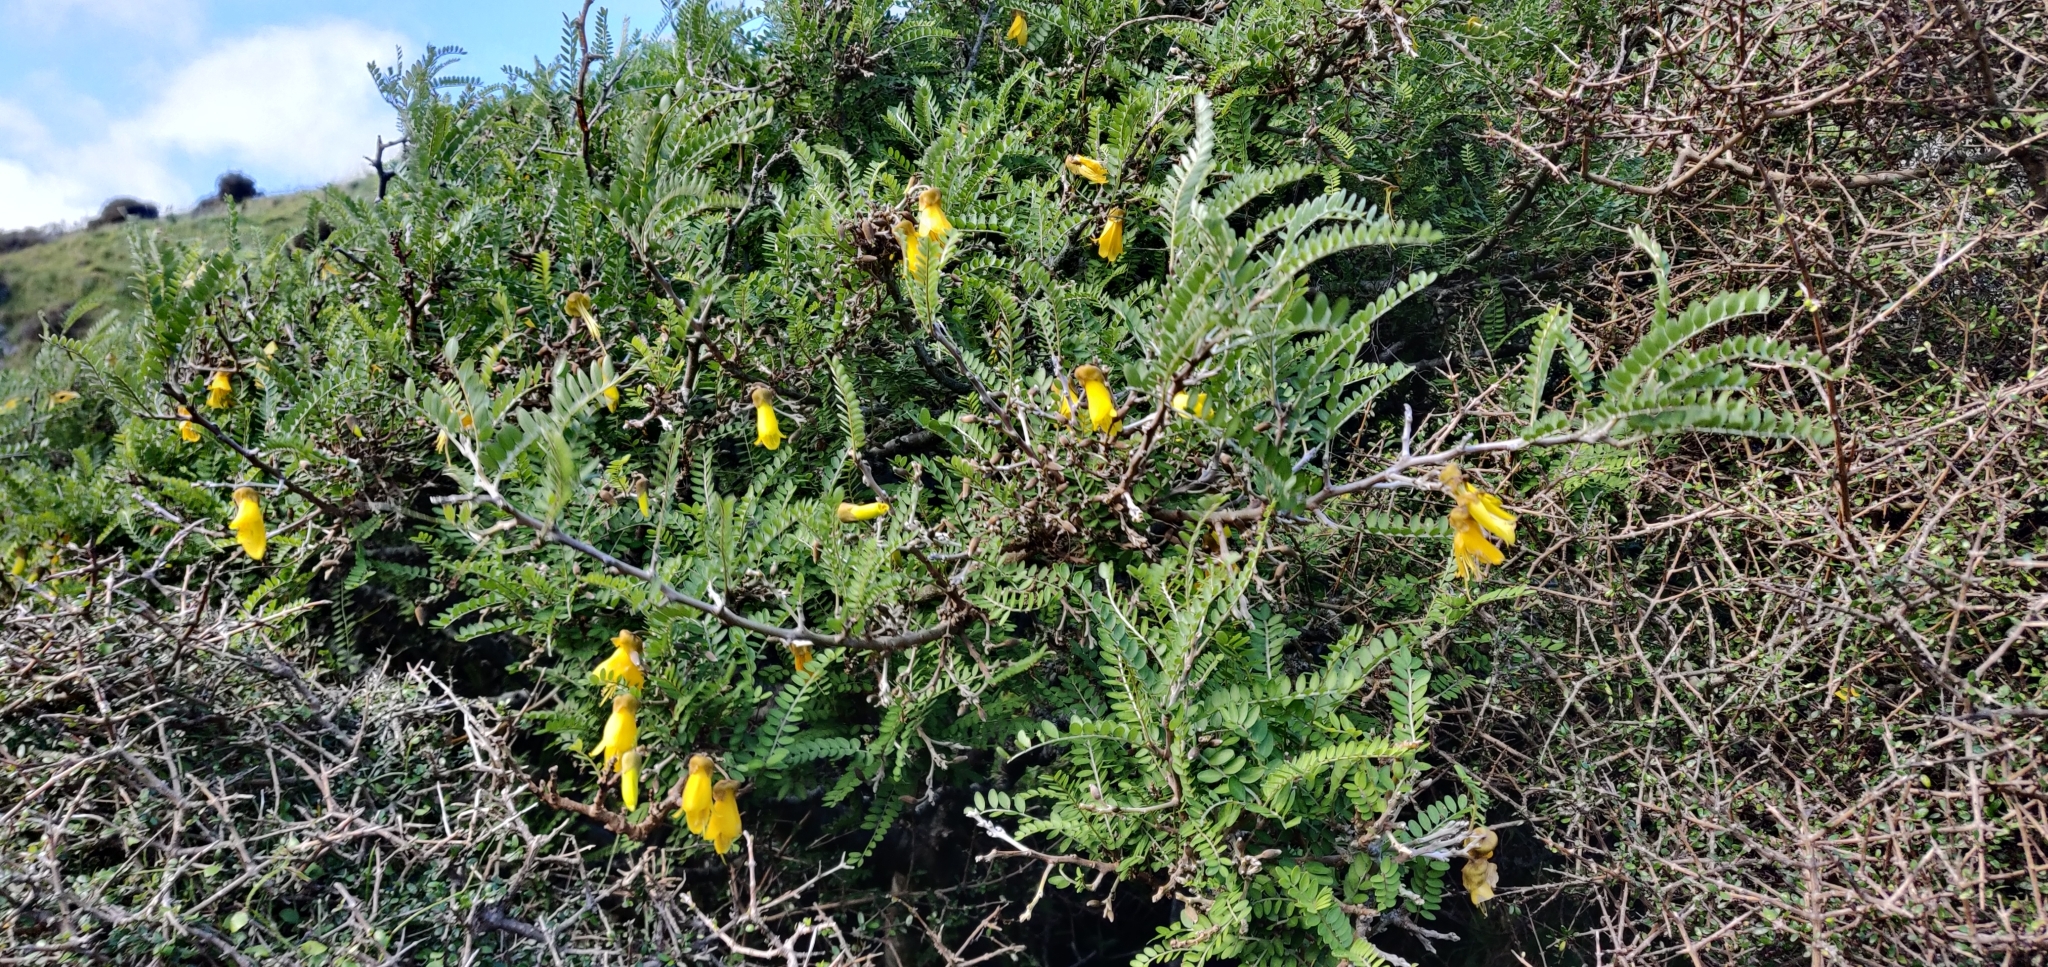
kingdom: Plantae
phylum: Tracheophyta
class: Magnoliopsida
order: Fabales
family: Fabaceae
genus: Sophora
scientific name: Sophora molloyi
